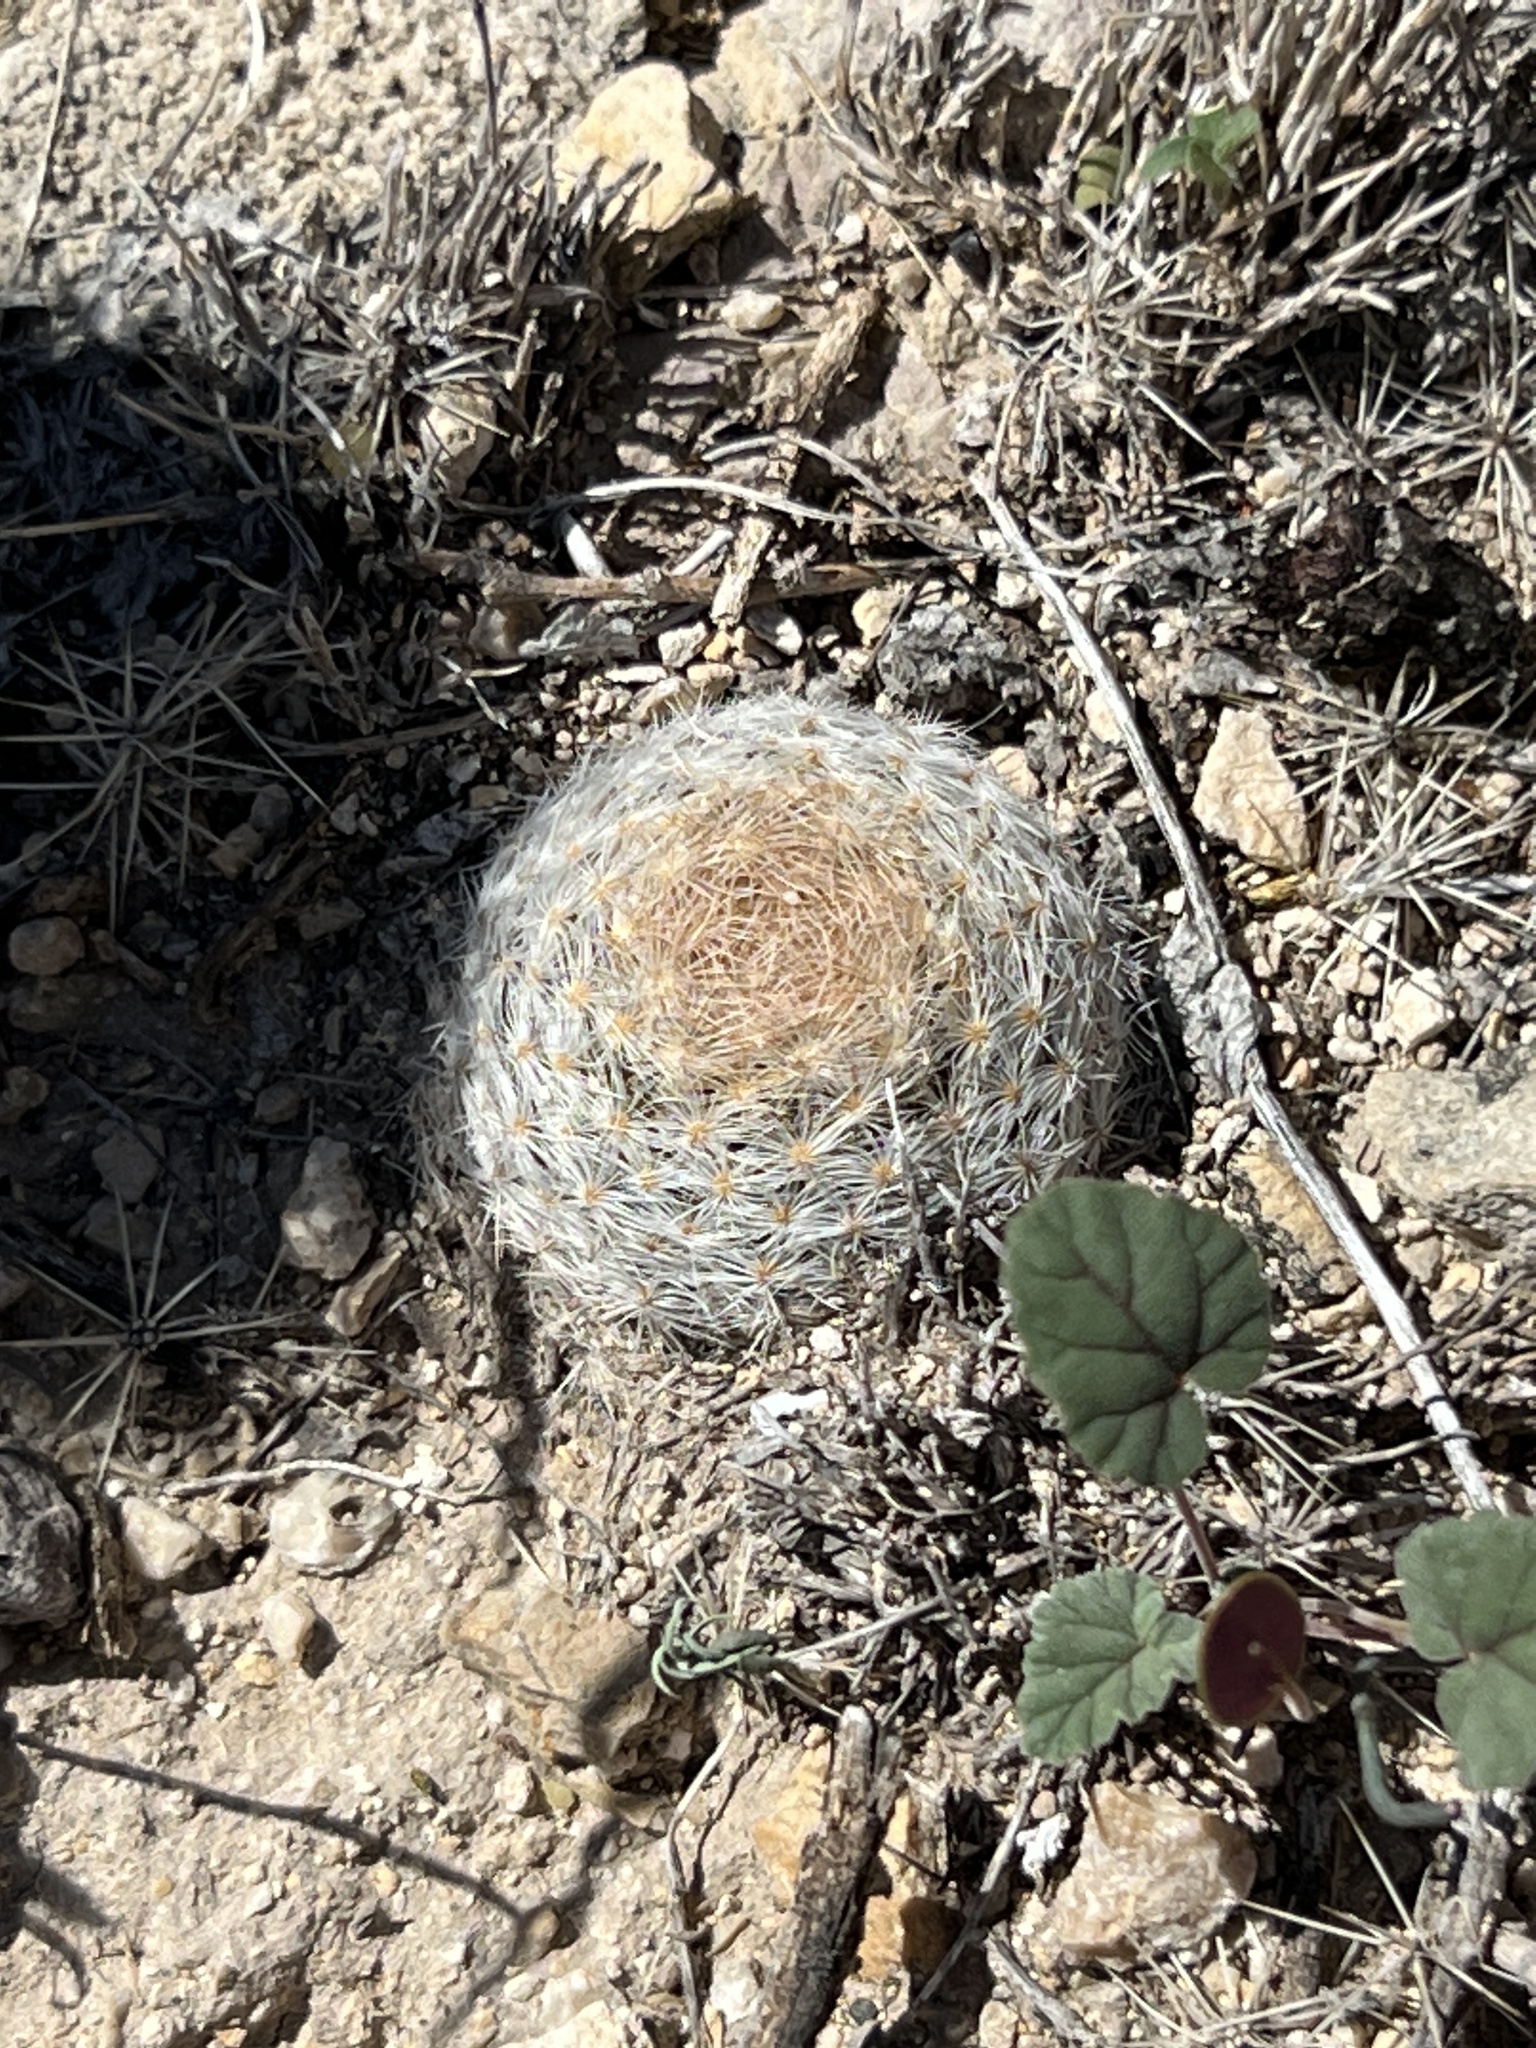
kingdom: Plantae
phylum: Tracheophyta
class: Magnoliopsida
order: Caryophyllales
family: Cactaceae
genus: Mammillaria
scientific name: Mammillaria lasiacantha
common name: Lace-spine nipple cactus
